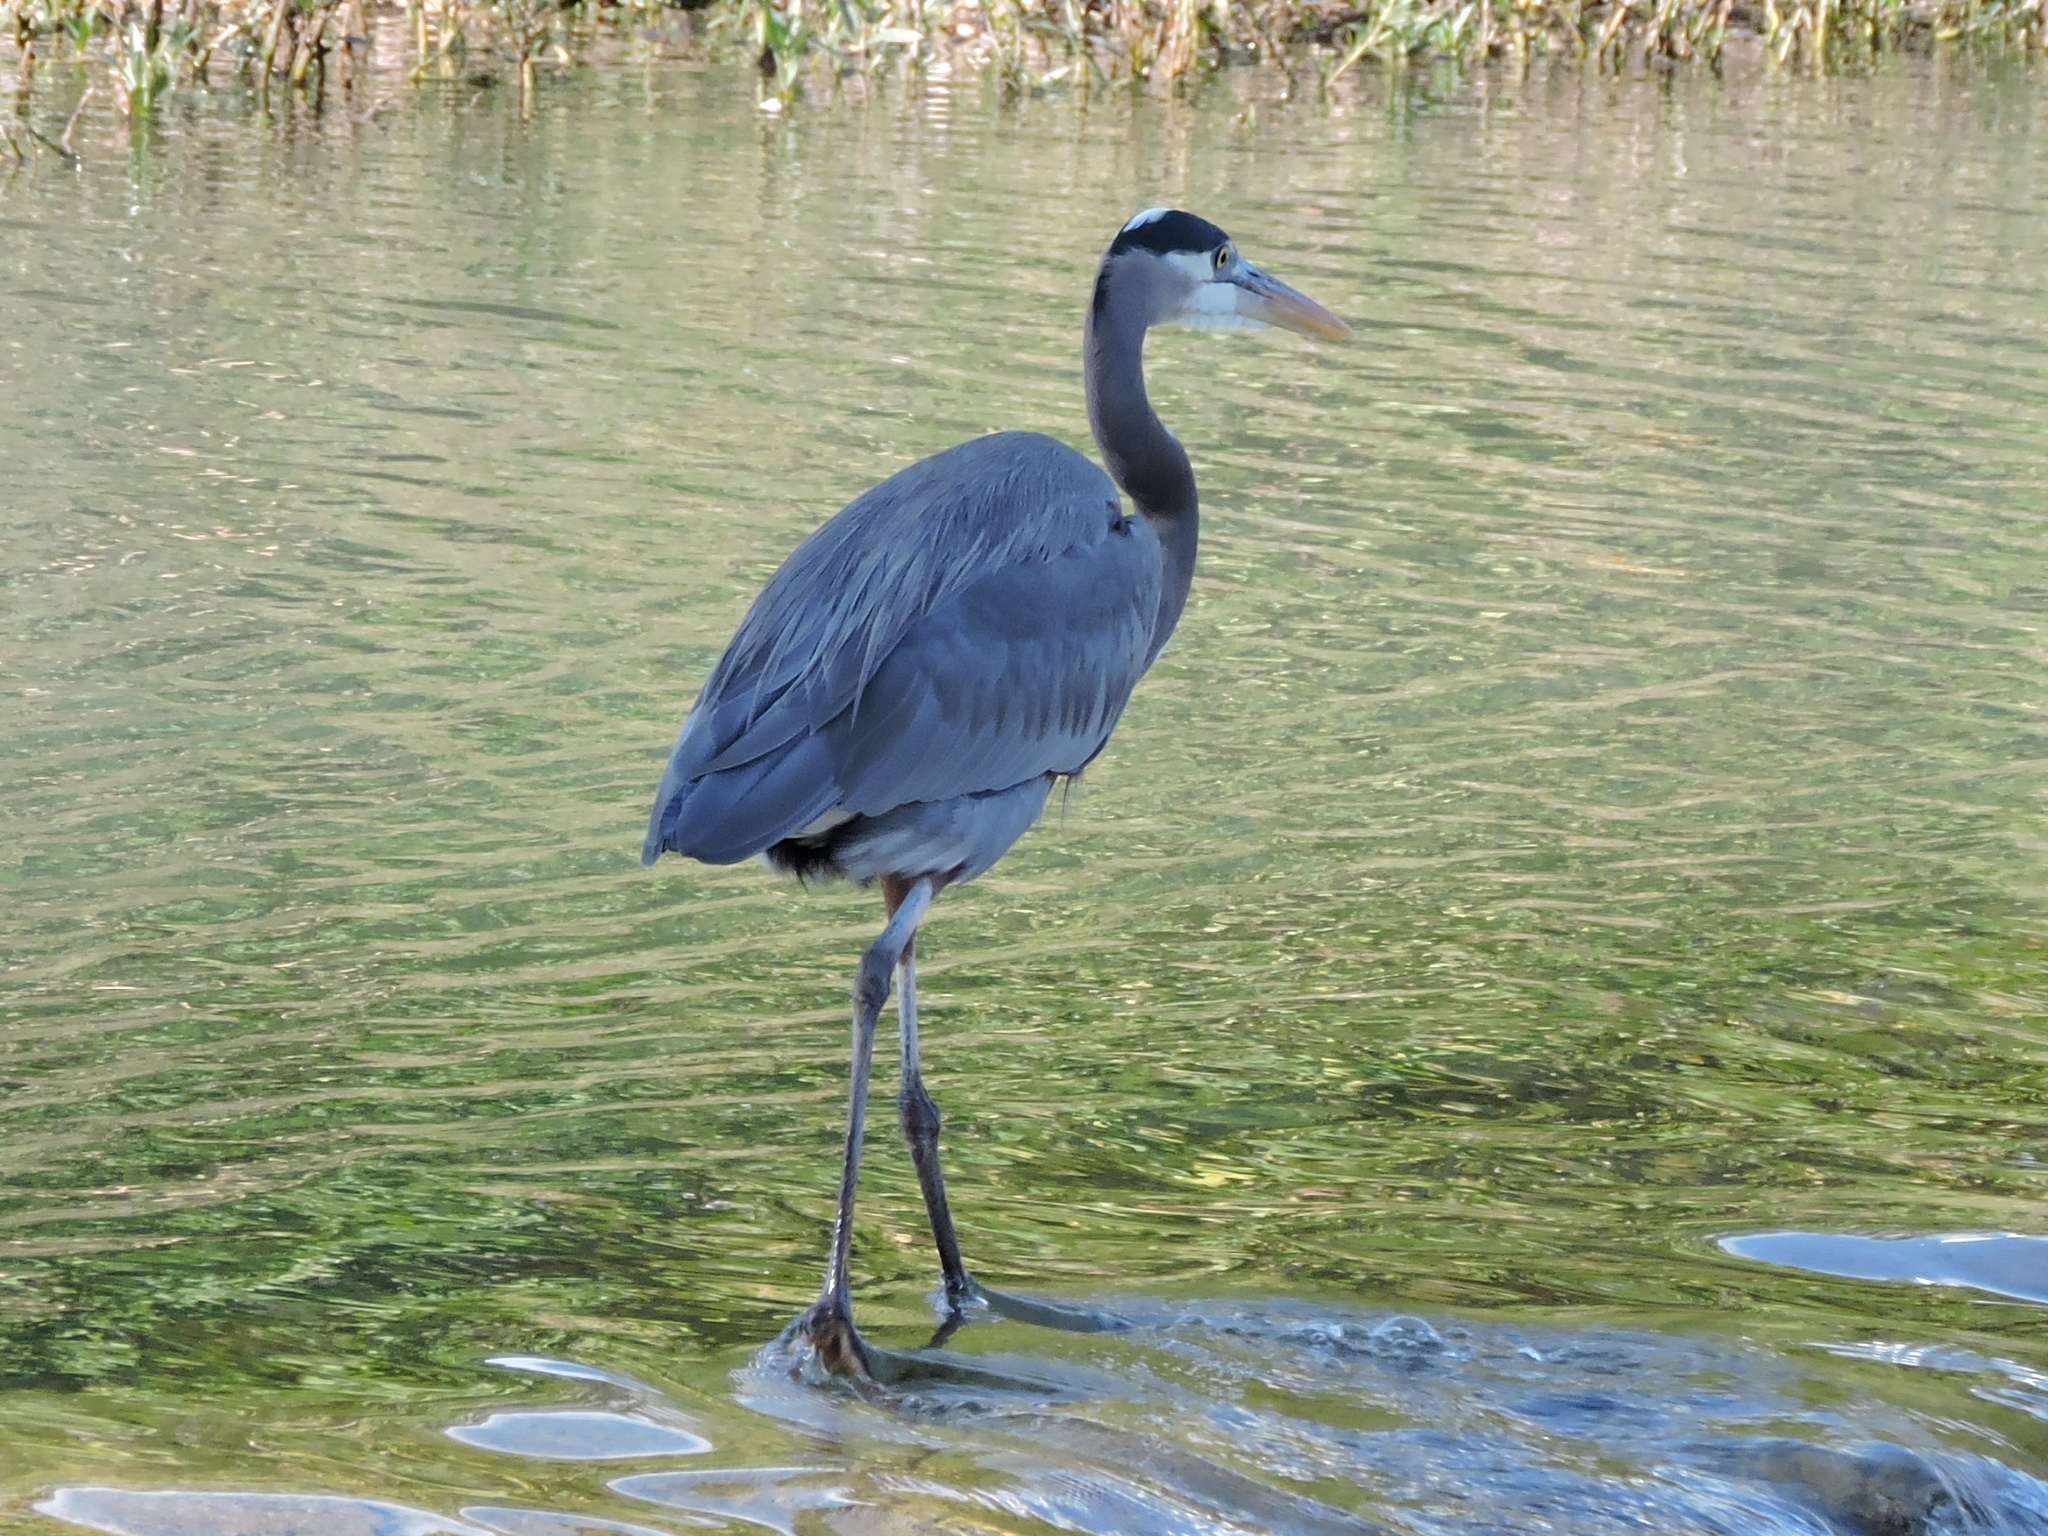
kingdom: Animalia
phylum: Chordata
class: Aves
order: Pelecaniformes
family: Ardeidae
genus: Ardea
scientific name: Ardea herodias
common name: Great blue heron
